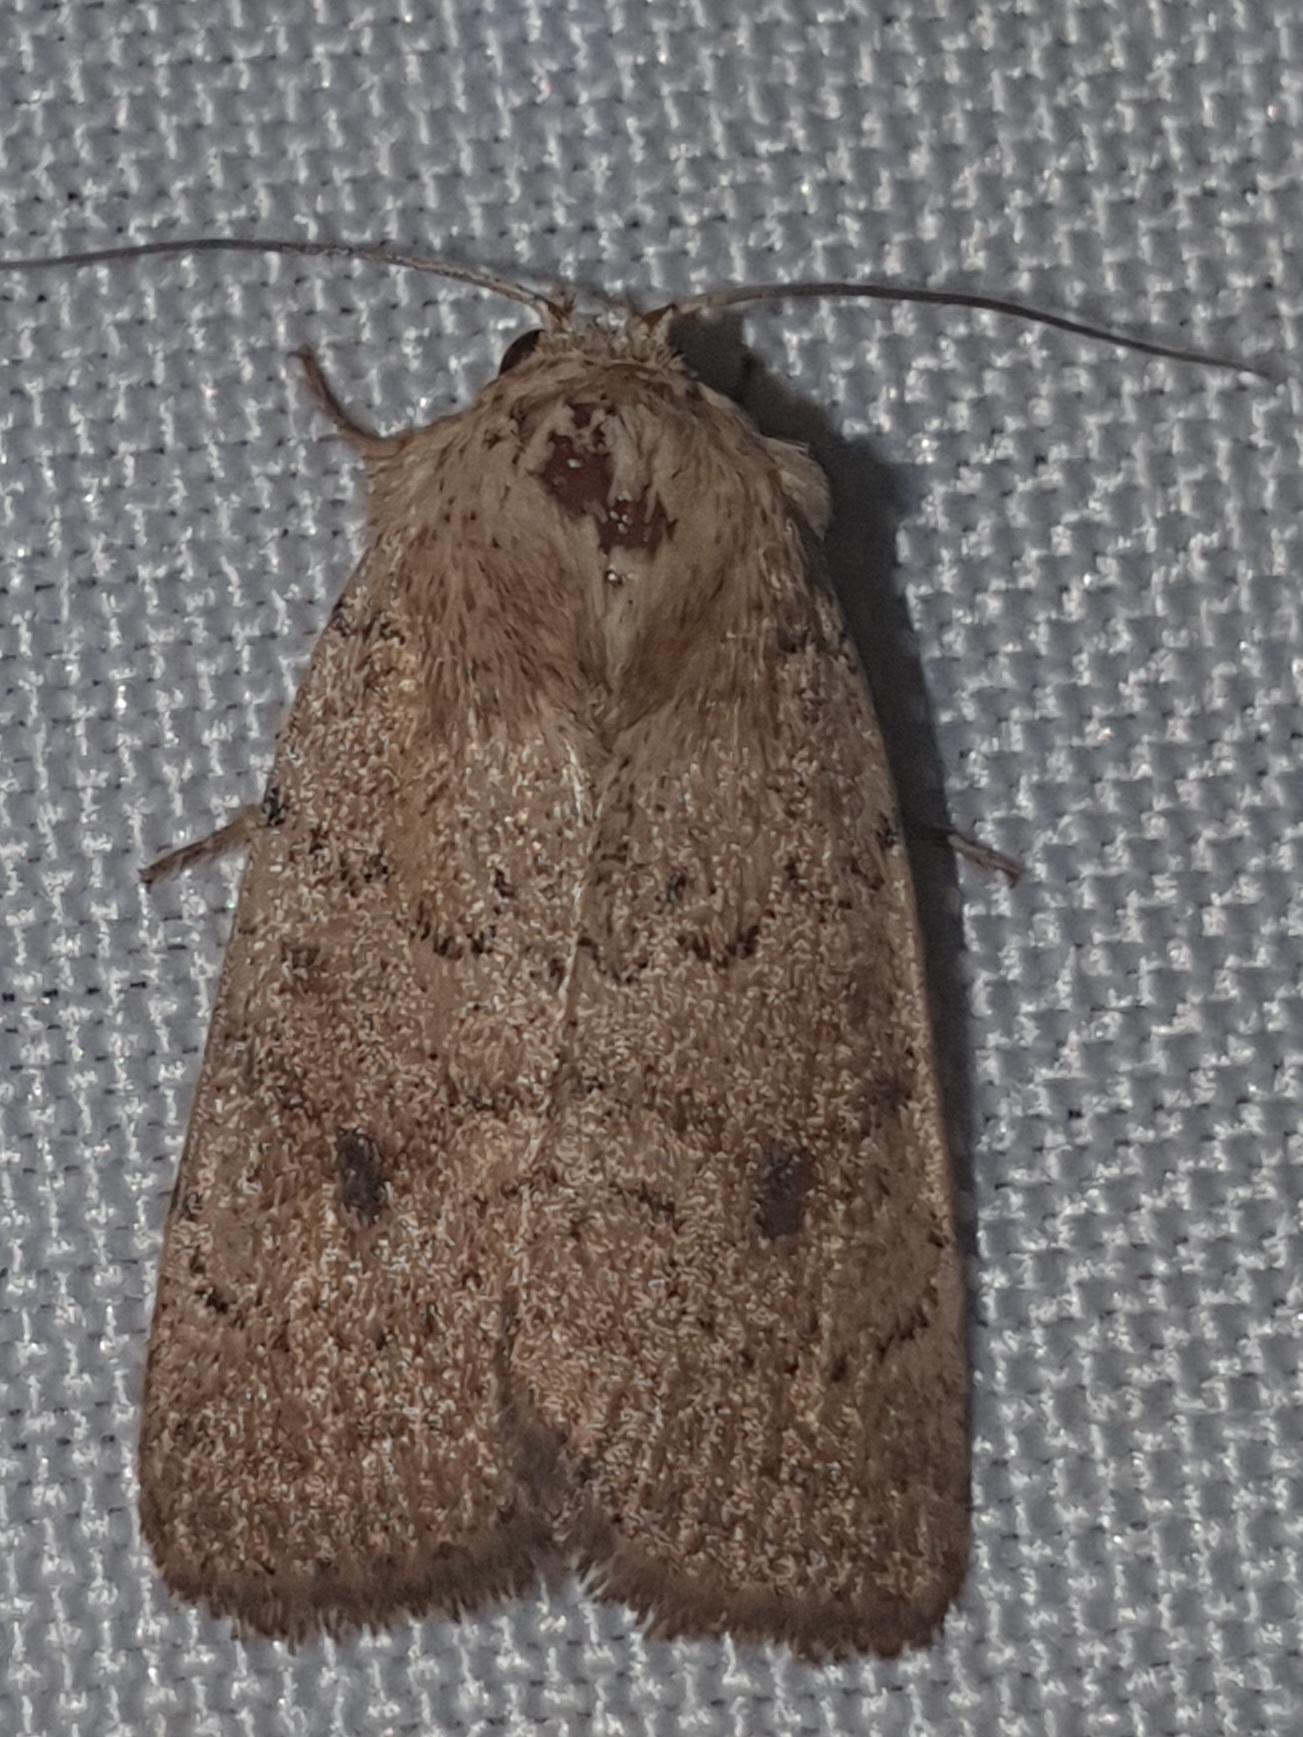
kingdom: Animalia
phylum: Arthropoda
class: Insecta
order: Lepidoptera
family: Noctuidae
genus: Hoplodrina
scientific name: Hoplodrina superstes
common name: Powdered rustic
